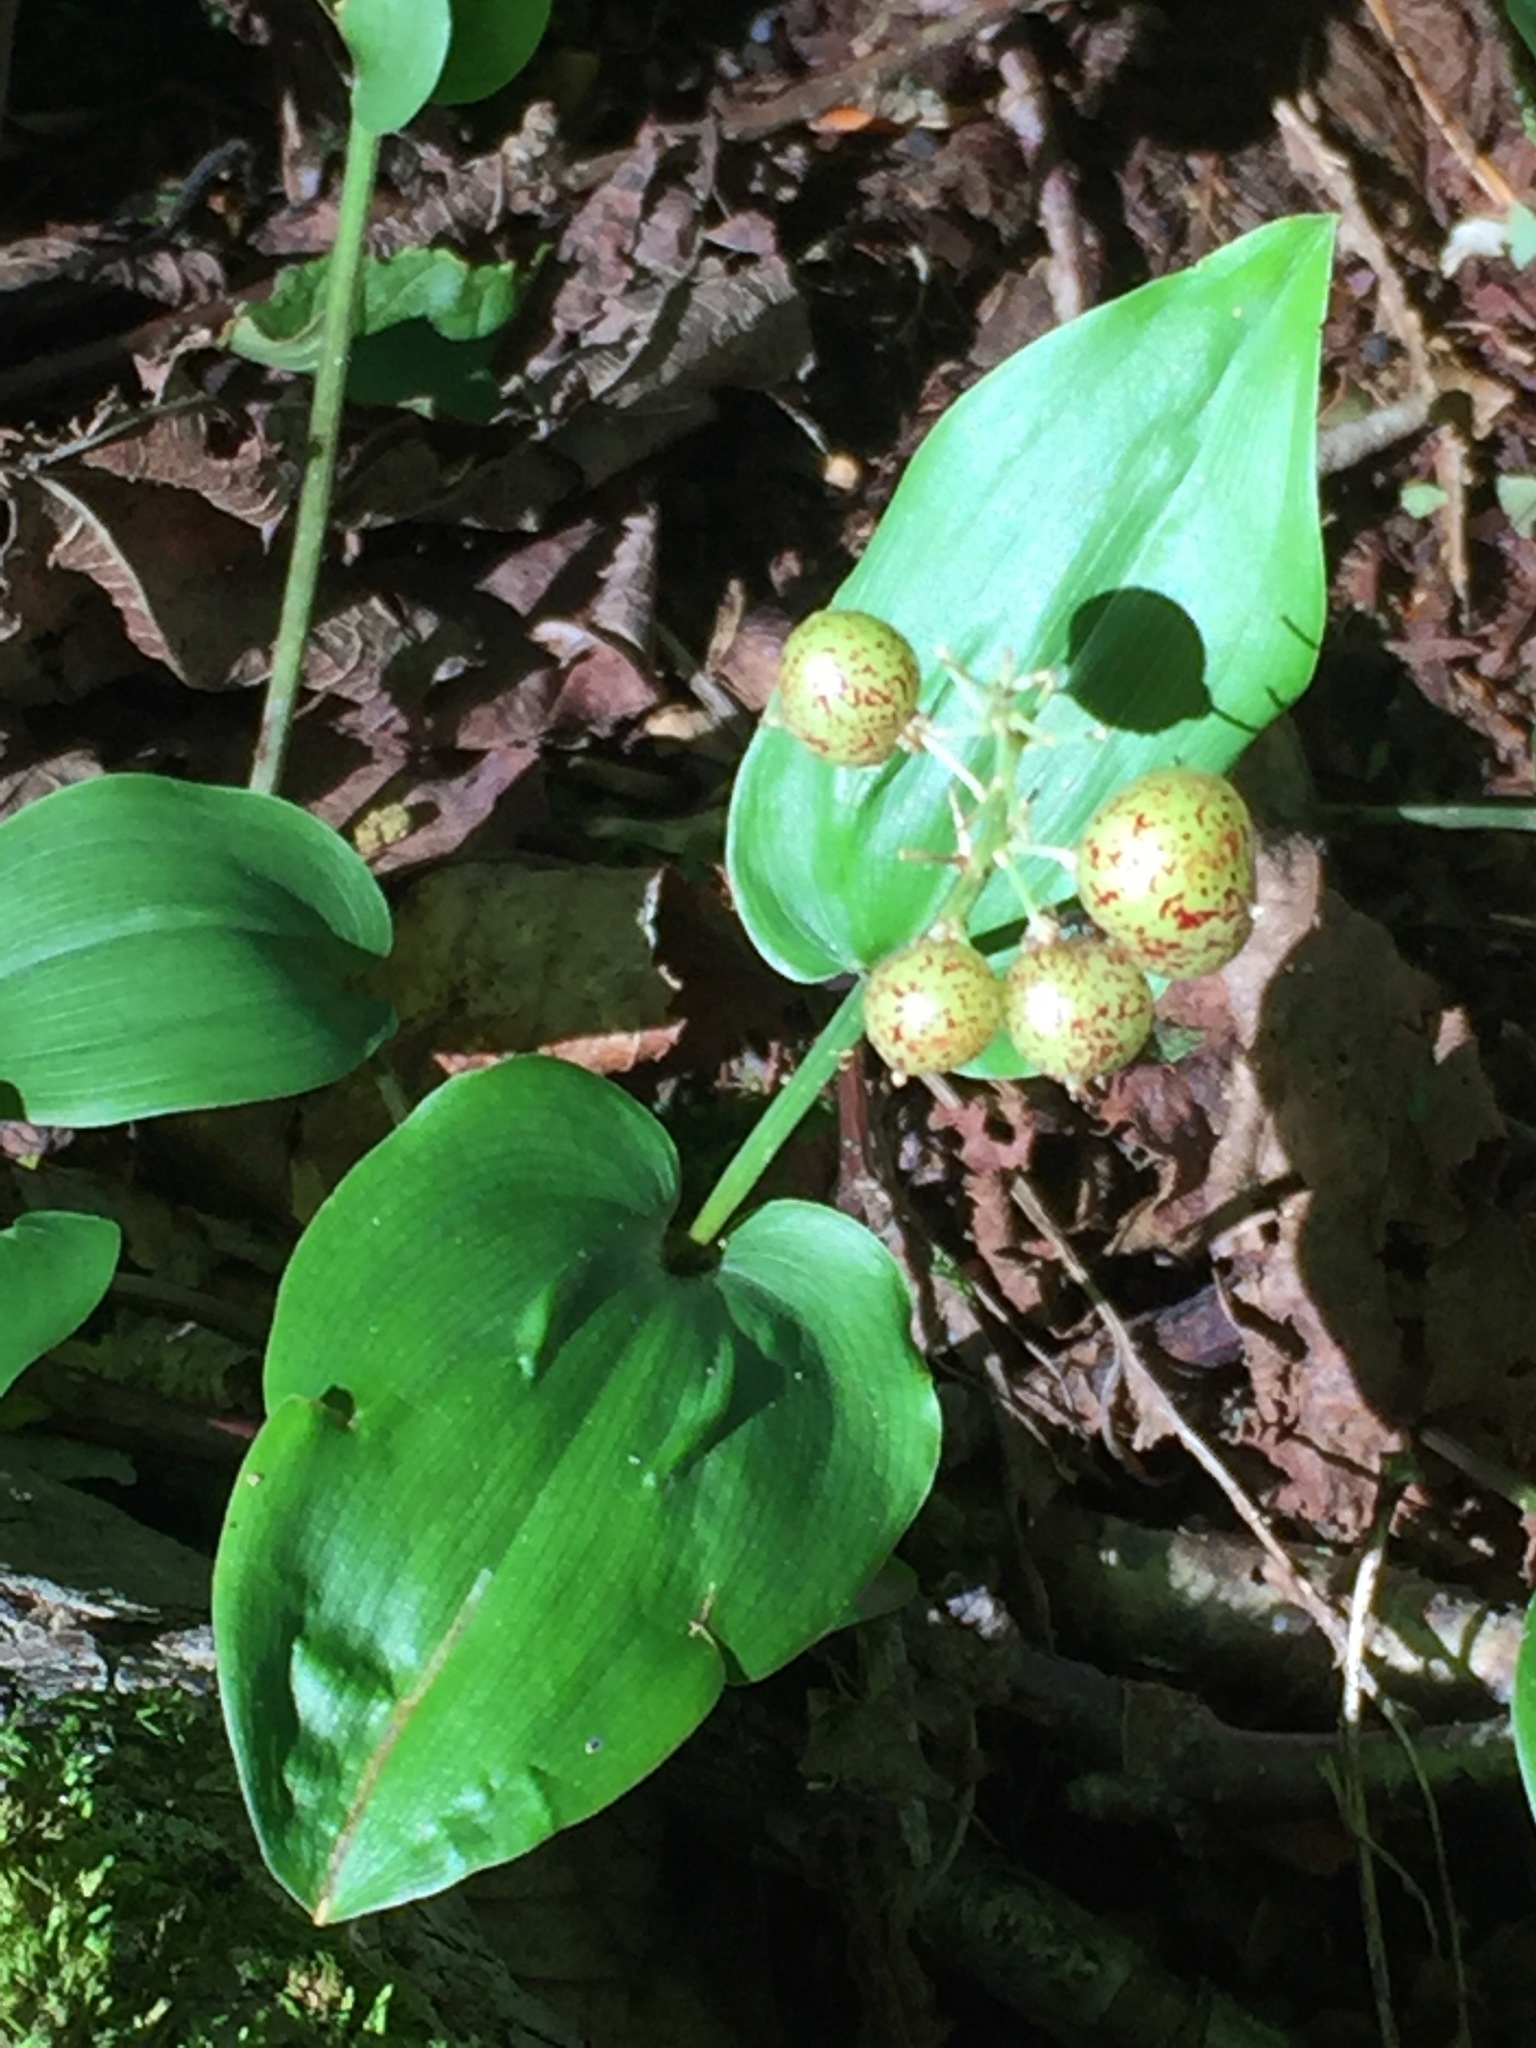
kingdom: Plantae
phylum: Tracheophyta
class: Liliopsida
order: Asparagales
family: Asparagaceae
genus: Maianthemum
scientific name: Maianthemum canadense
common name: False lily-of-the-valley
